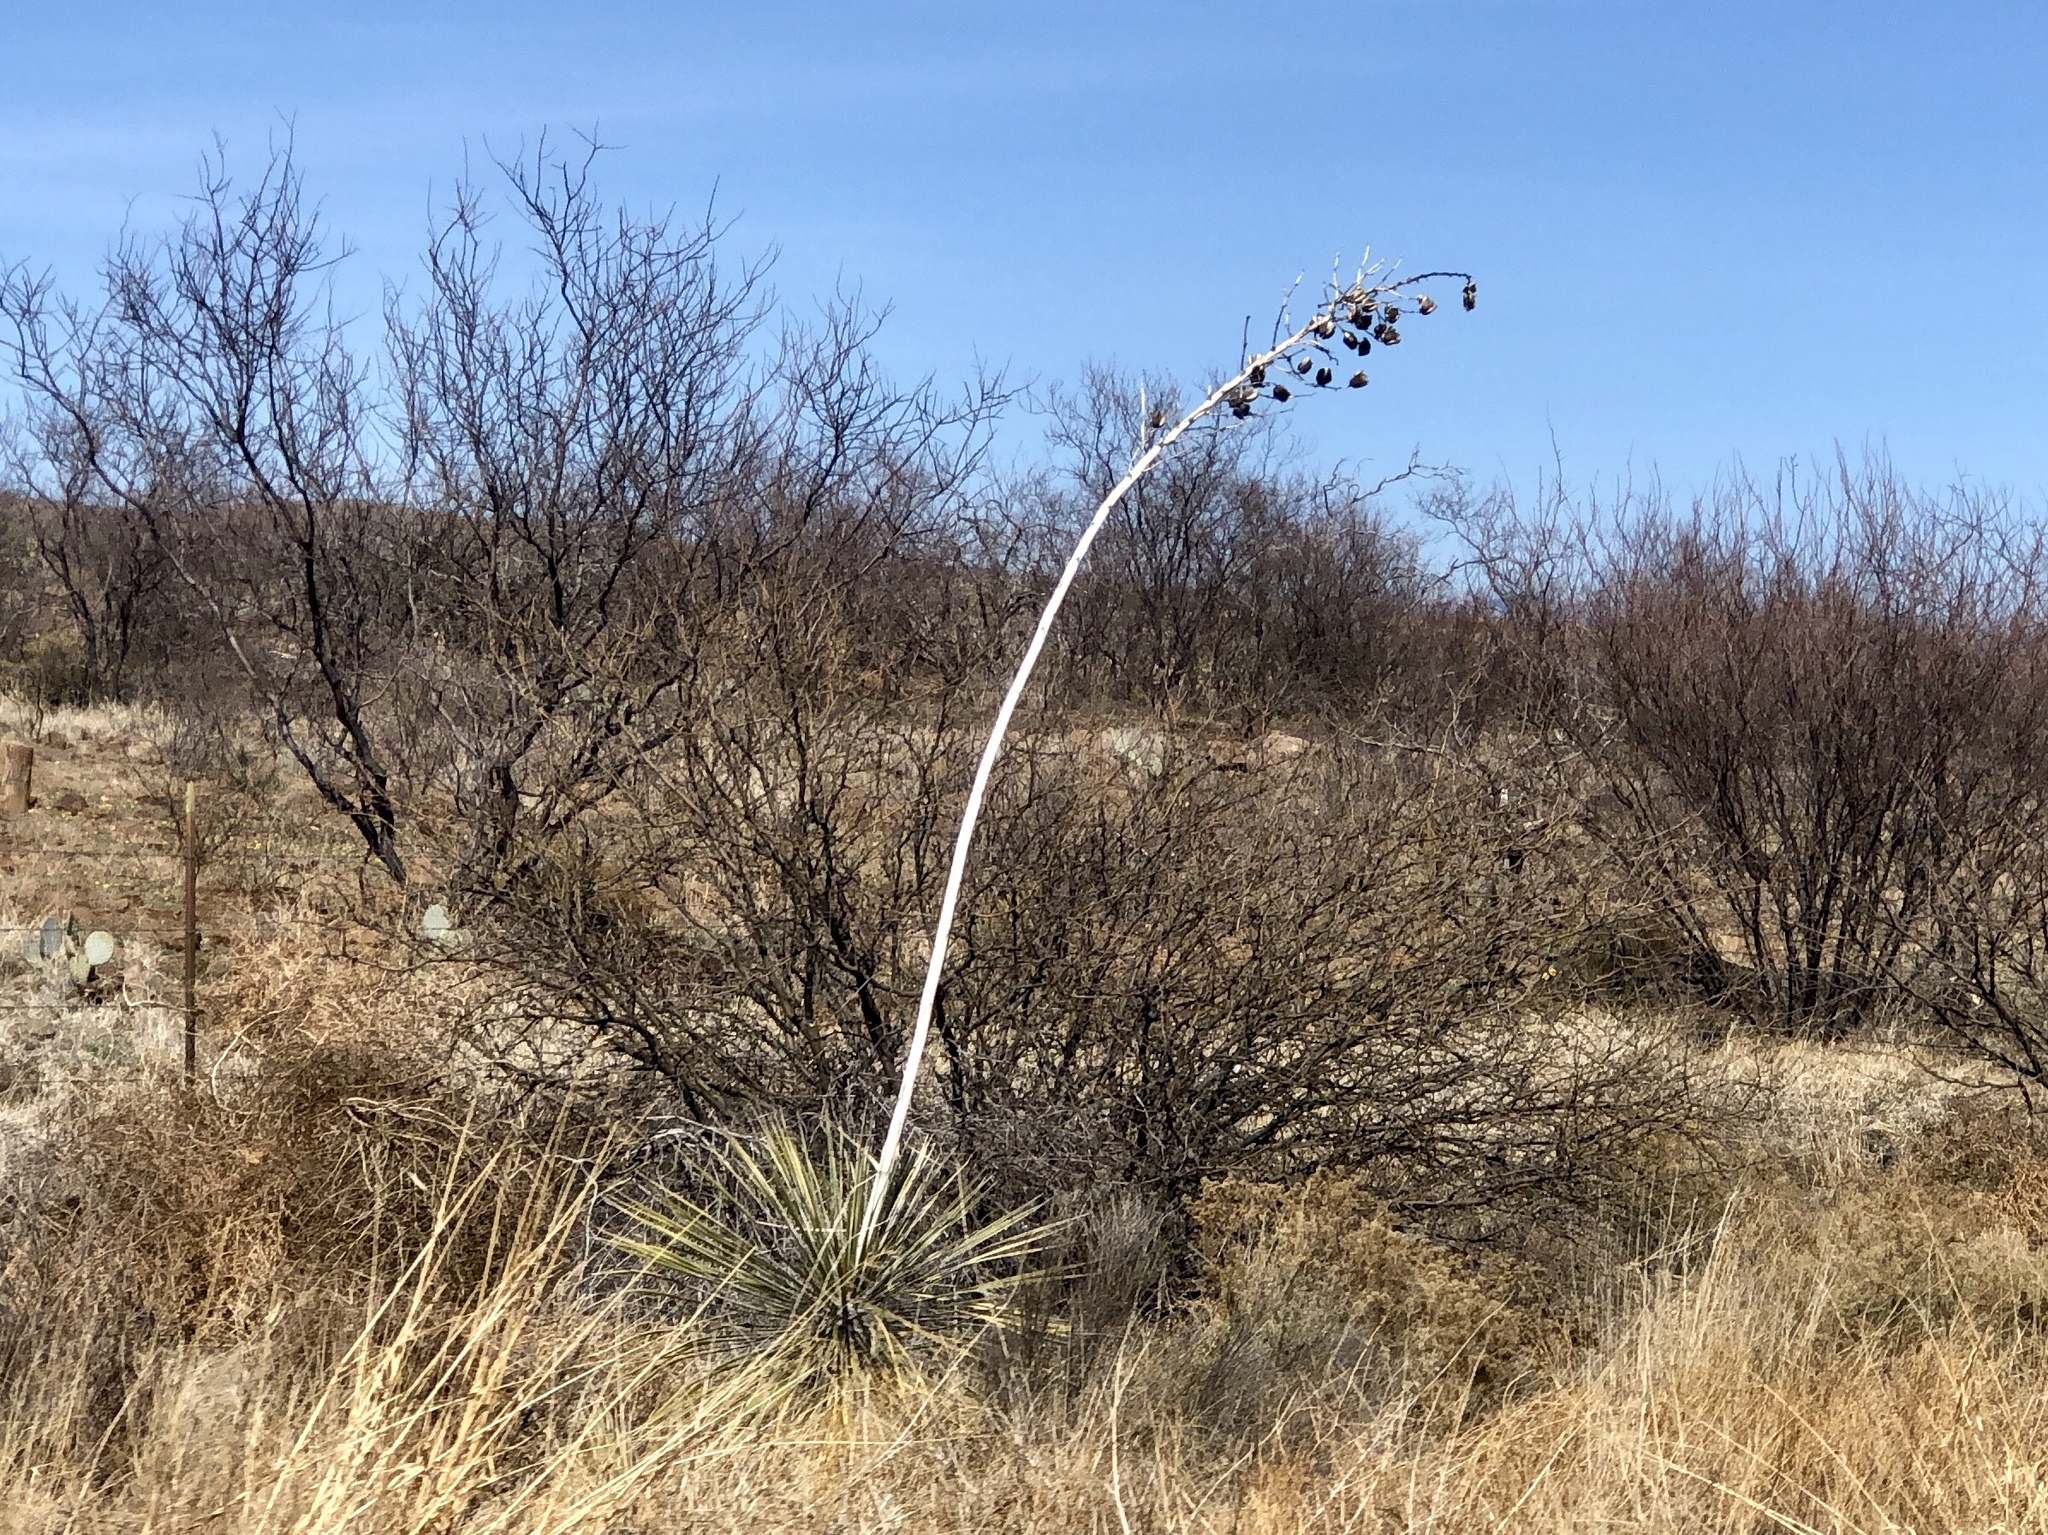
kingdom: Plantae
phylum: Tracheophyta
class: Liliopsida
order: Asparagales
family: Asparagaceae
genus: Yucca
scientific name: Yucca elata
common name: Palmella
